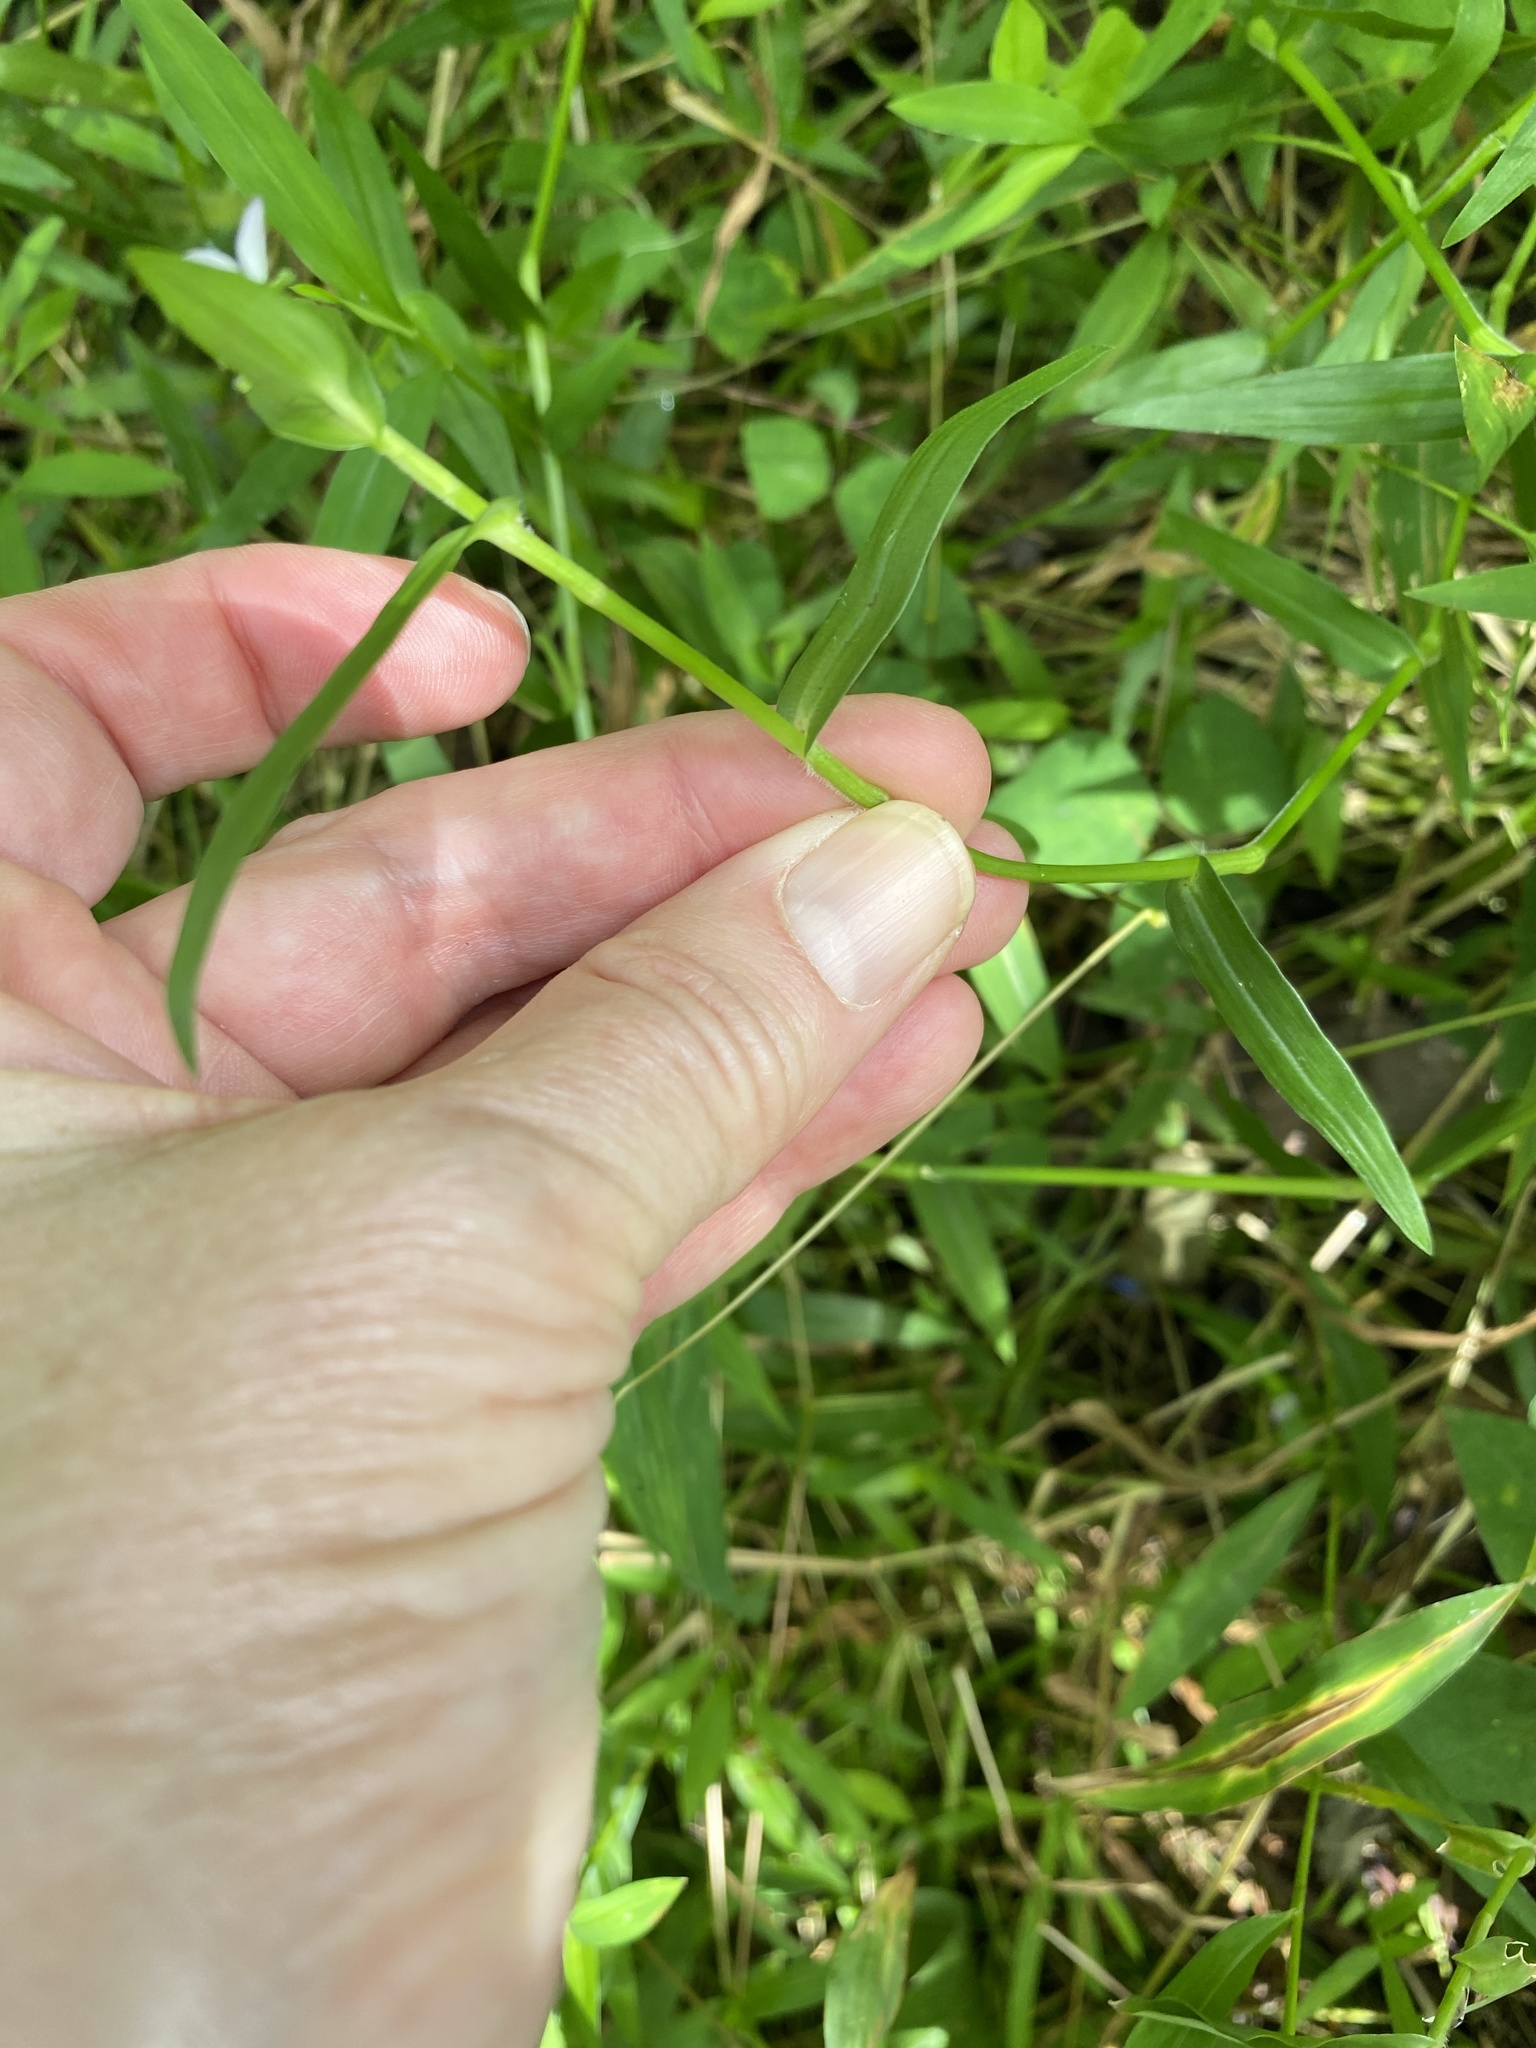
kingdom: Plantae
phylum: Tracheophyta
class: Liliopsida
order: Commelinales
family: Commelinaceae
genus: Murdannia
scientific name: Murdannia keisak
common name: Wartremoving herb
